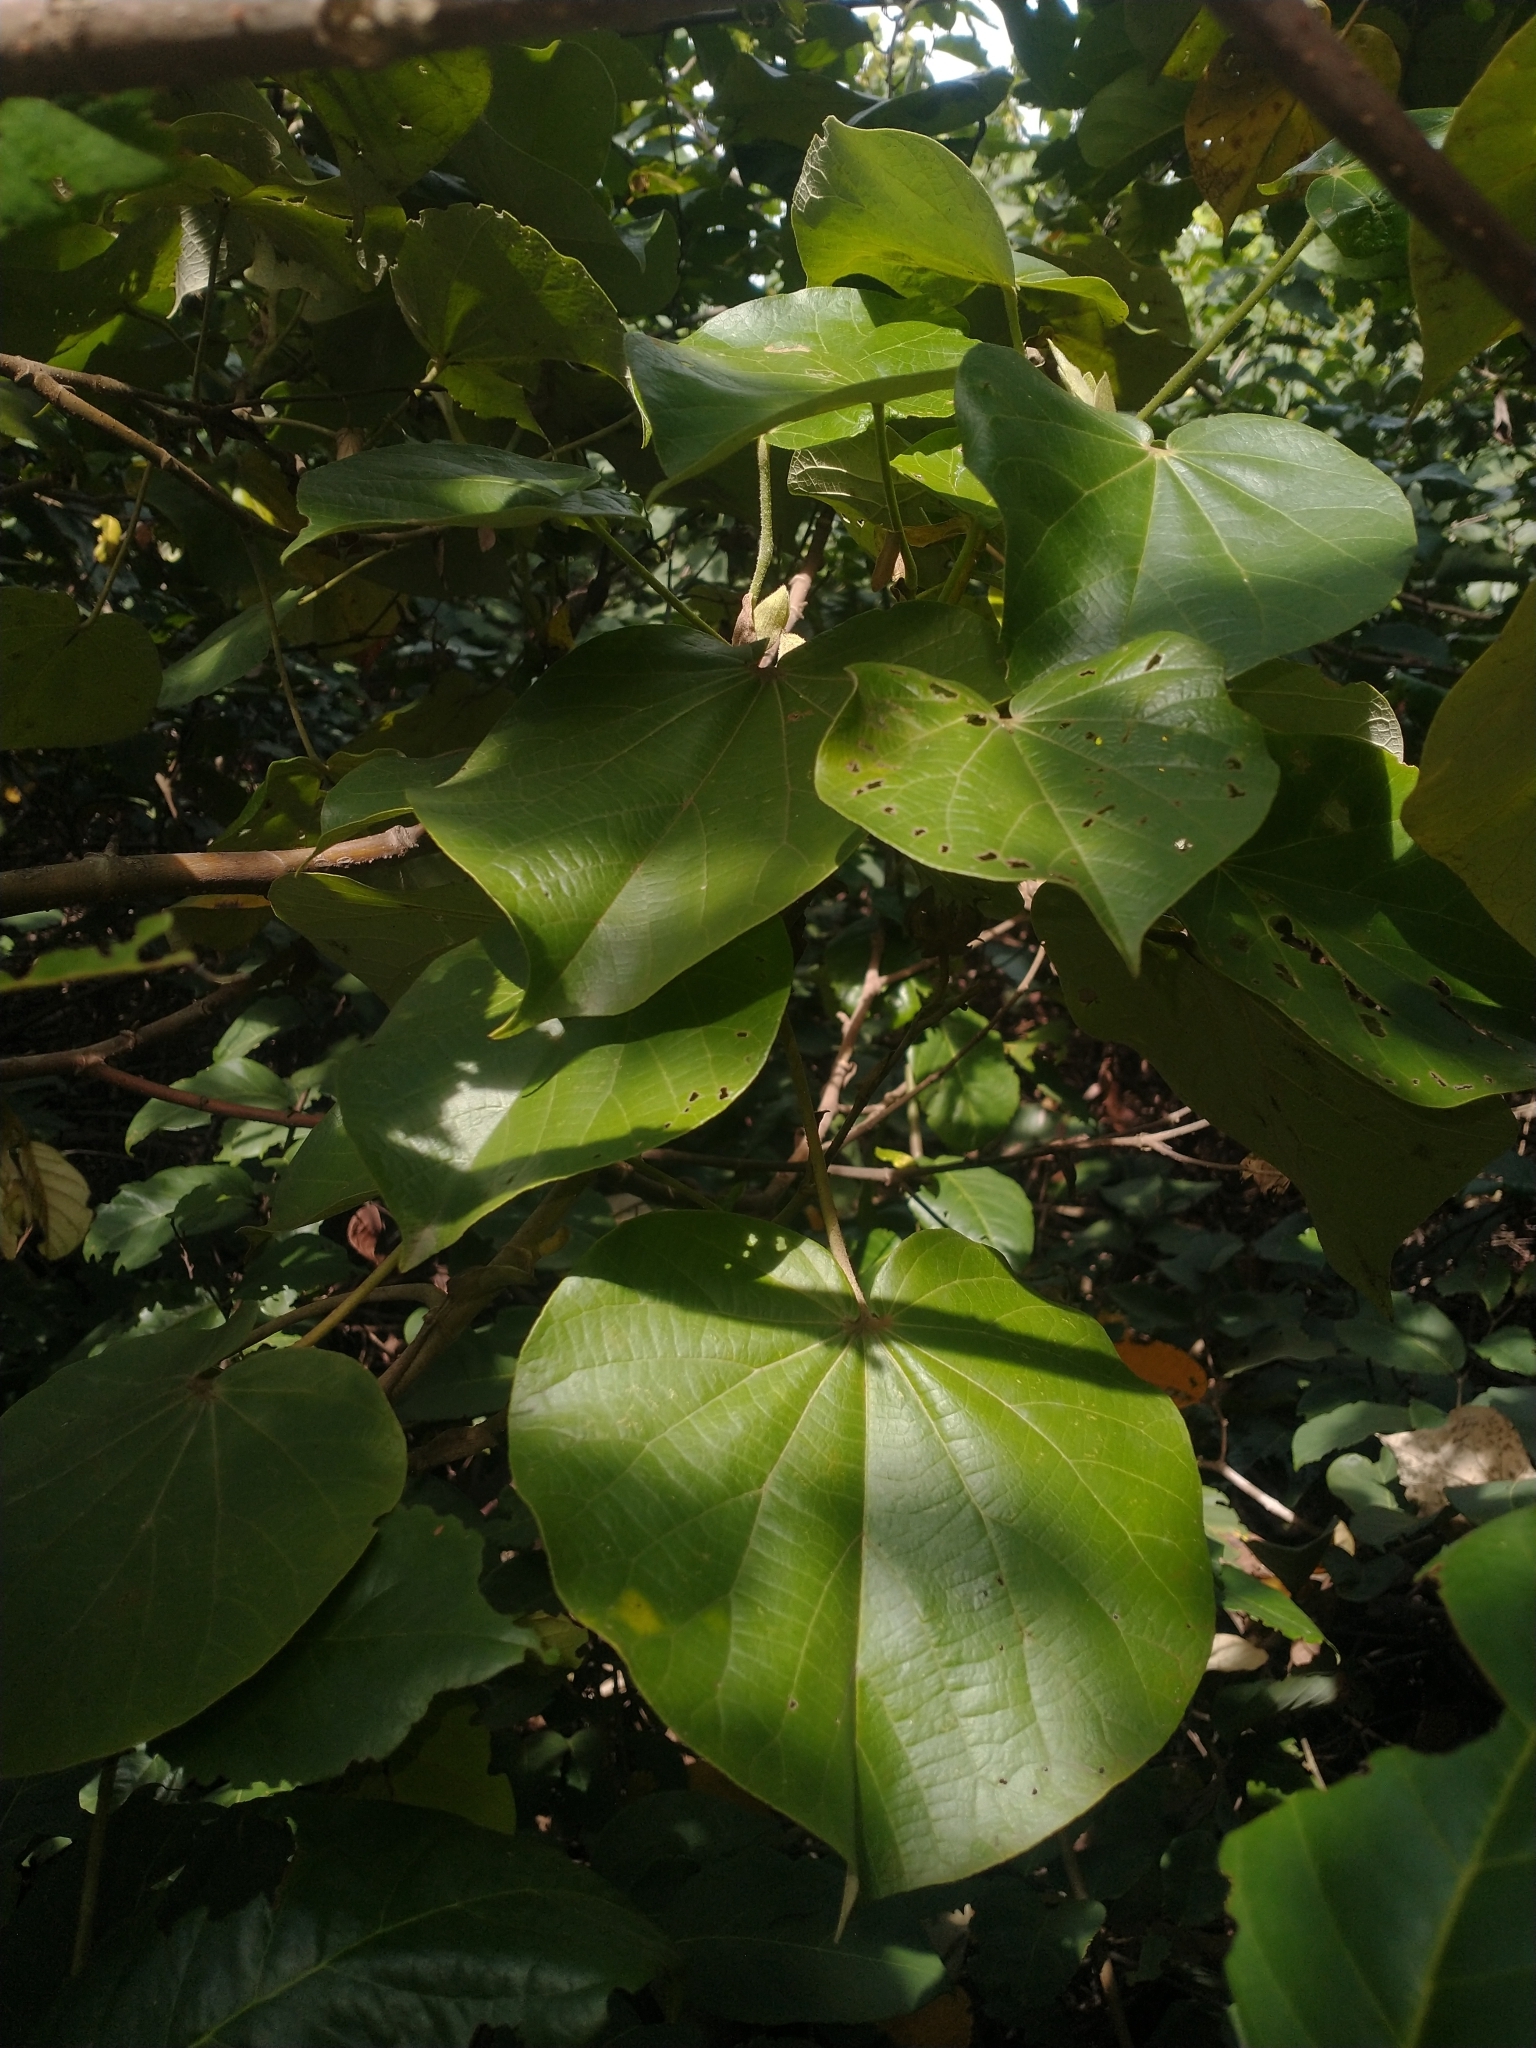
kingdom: Plantae
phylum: Tracheophyta
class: Magnoliopsida
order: Malvales
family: Malvaceae
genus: Talipariti
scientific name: Talipariti tiliaceum
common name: Sea hibiscus
